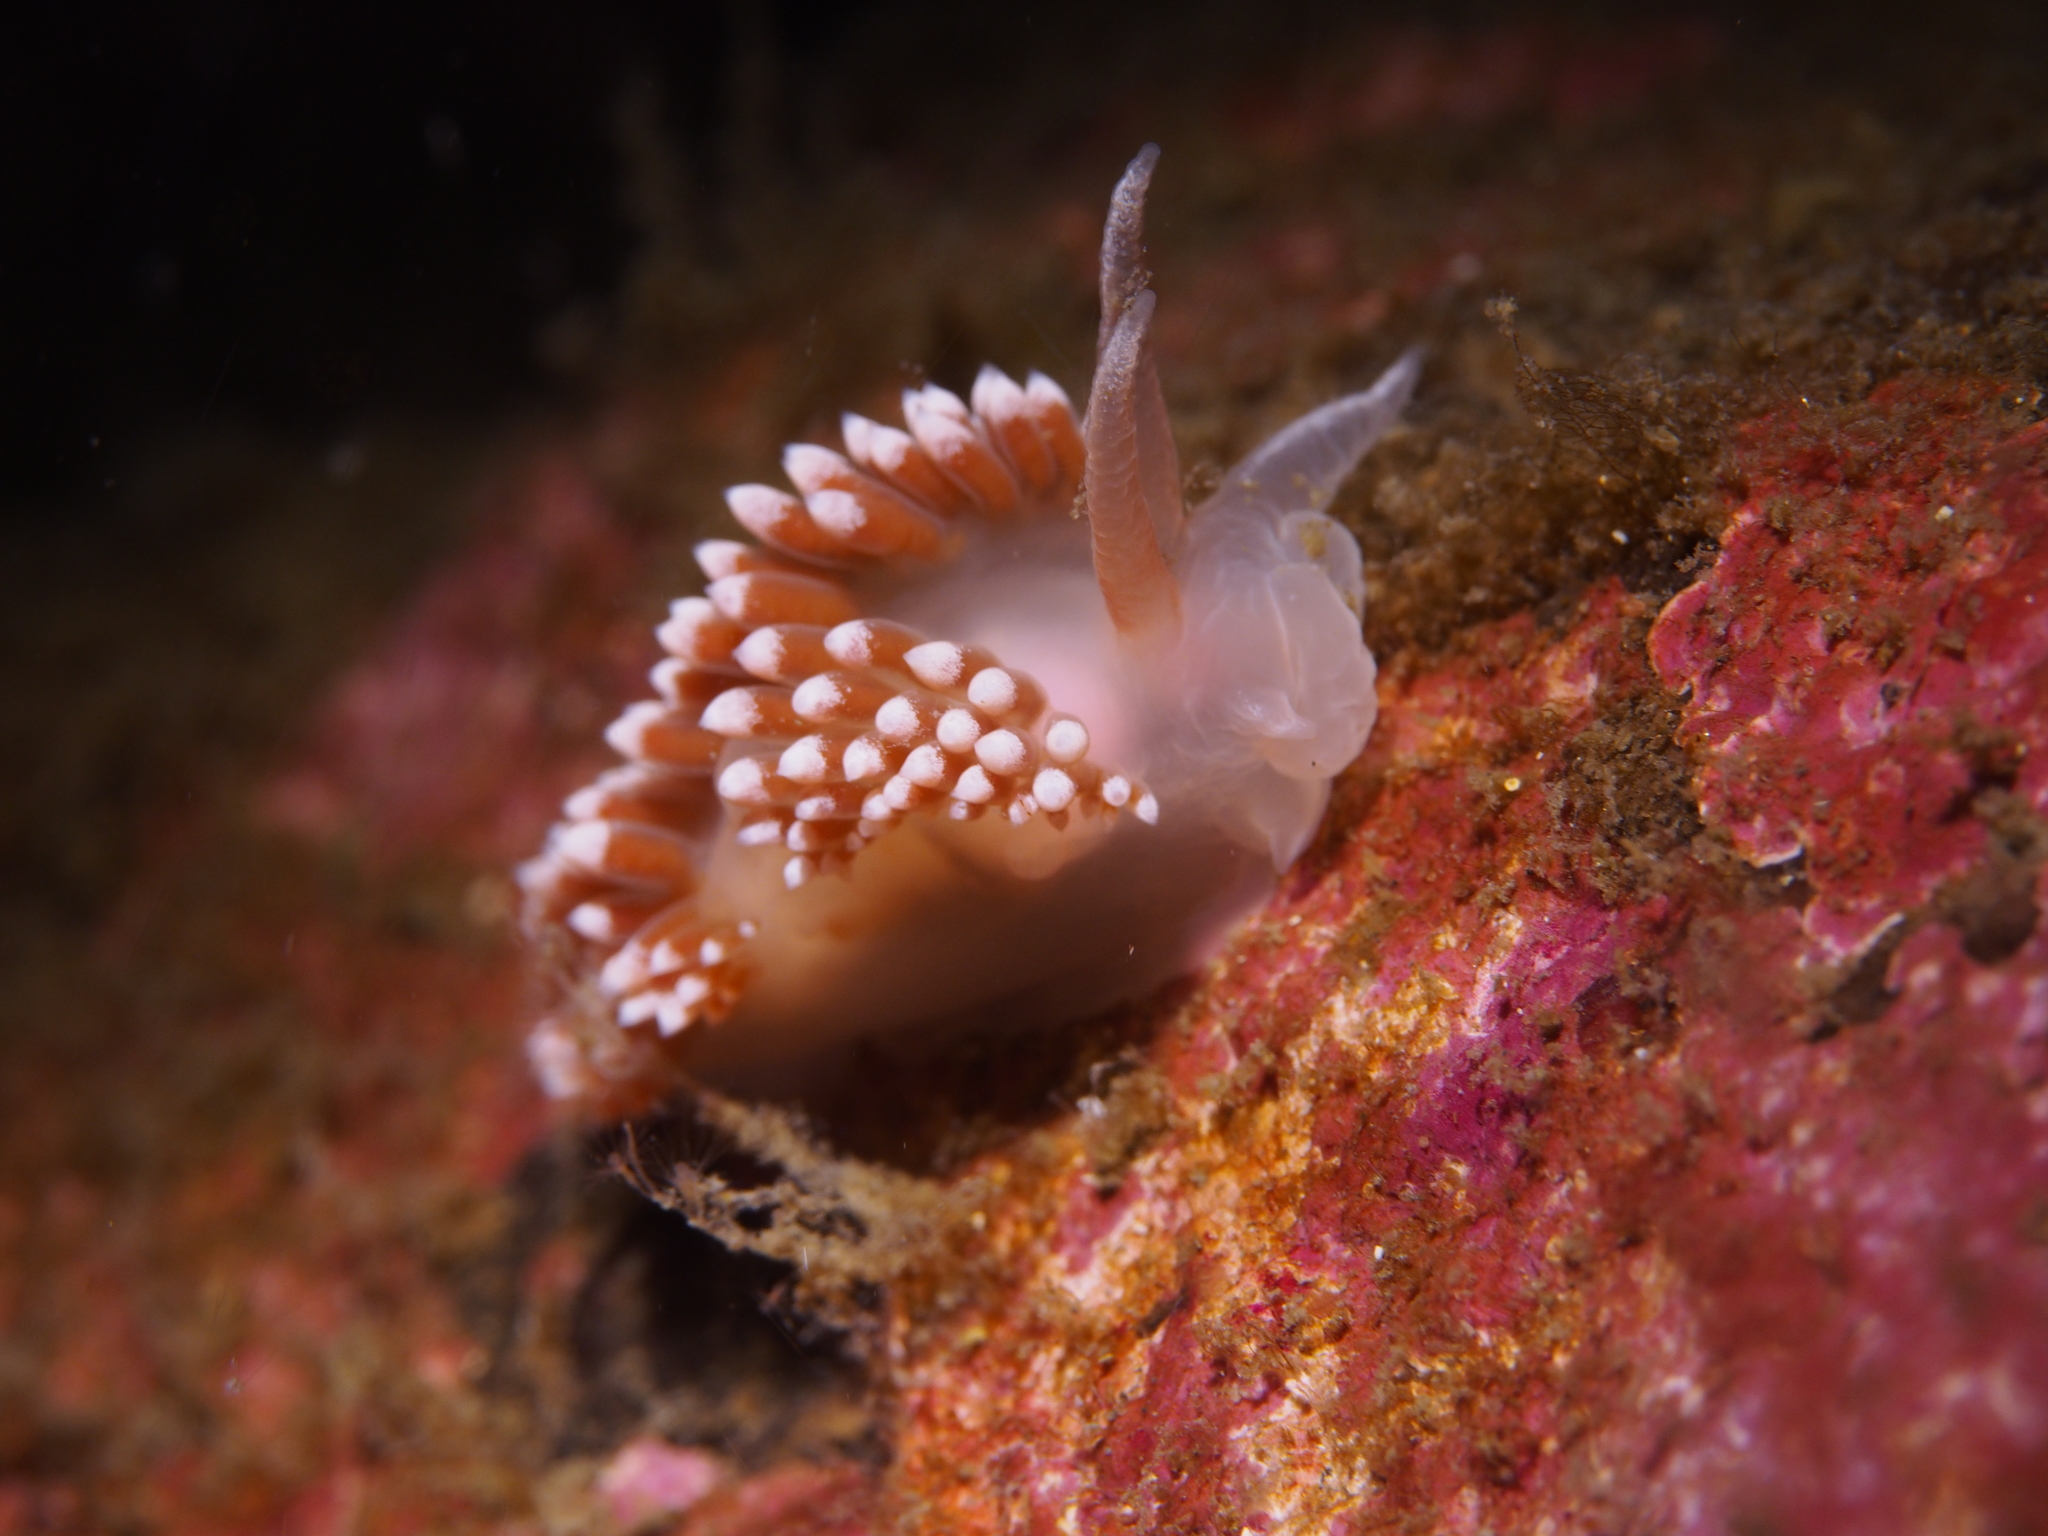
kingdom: Animalia
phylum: Mollusca
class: Gastropoda
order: Nudibranchia
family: Coryphellidae
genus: Coryphella
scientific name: Coryphella verrucosa
